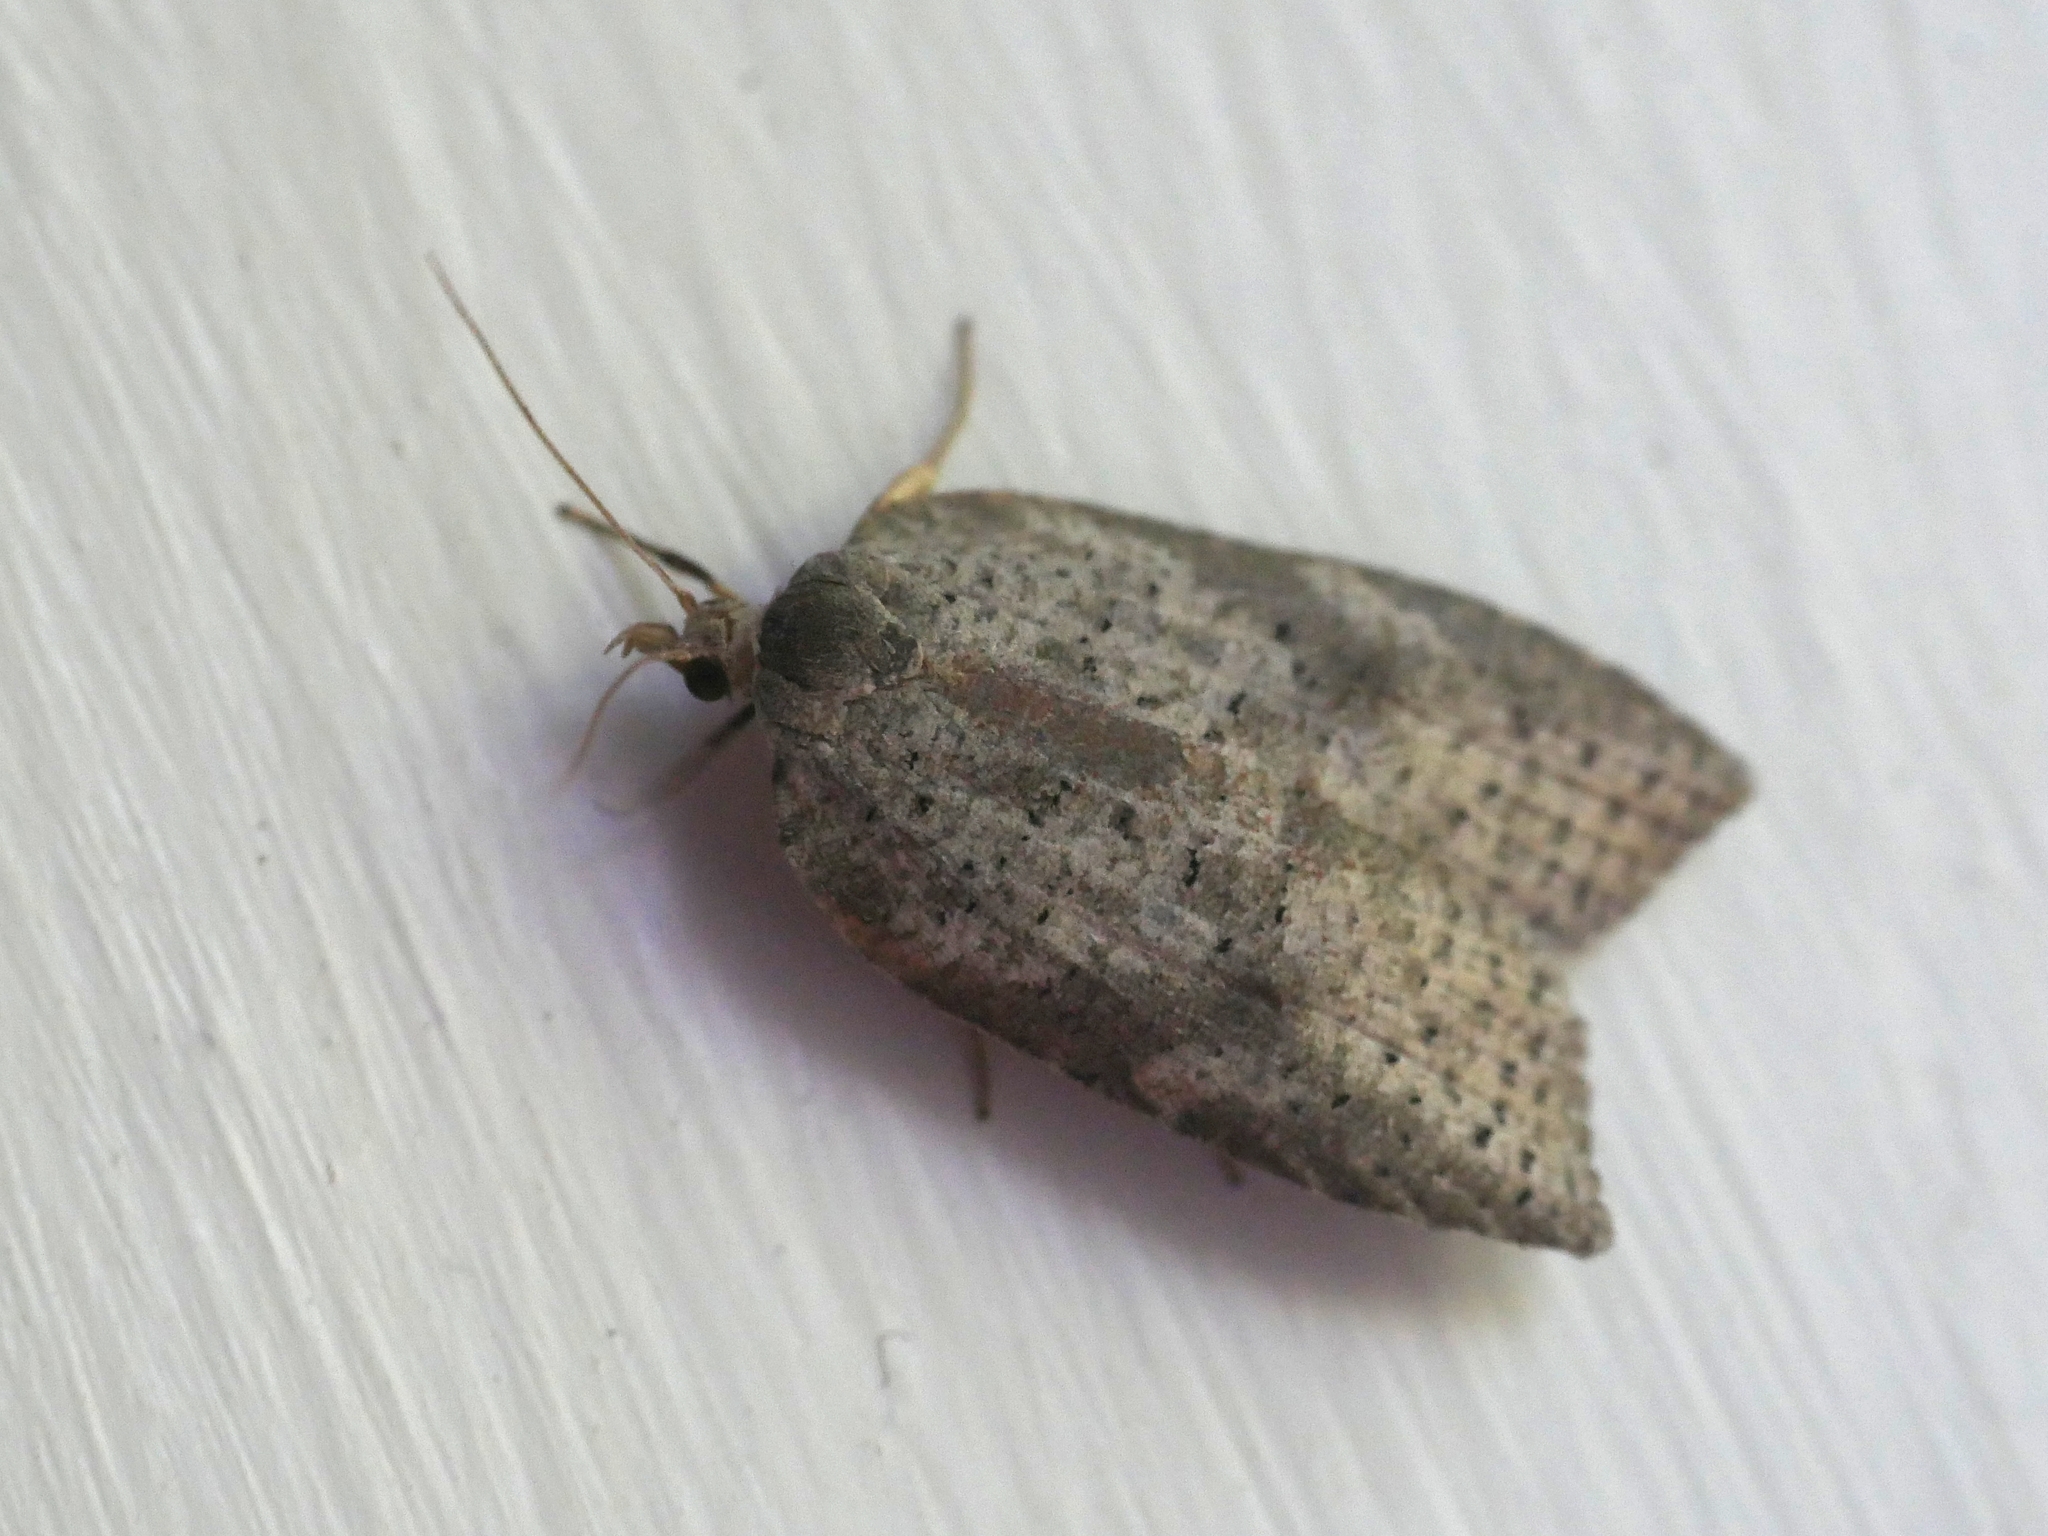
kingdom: Animalia
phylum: Arthropoda
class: Insecta
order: Lepidoptera
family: Tortricidae
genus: Amorbia
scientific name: Amorbia humerosana
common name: White-lined leafroller moth
